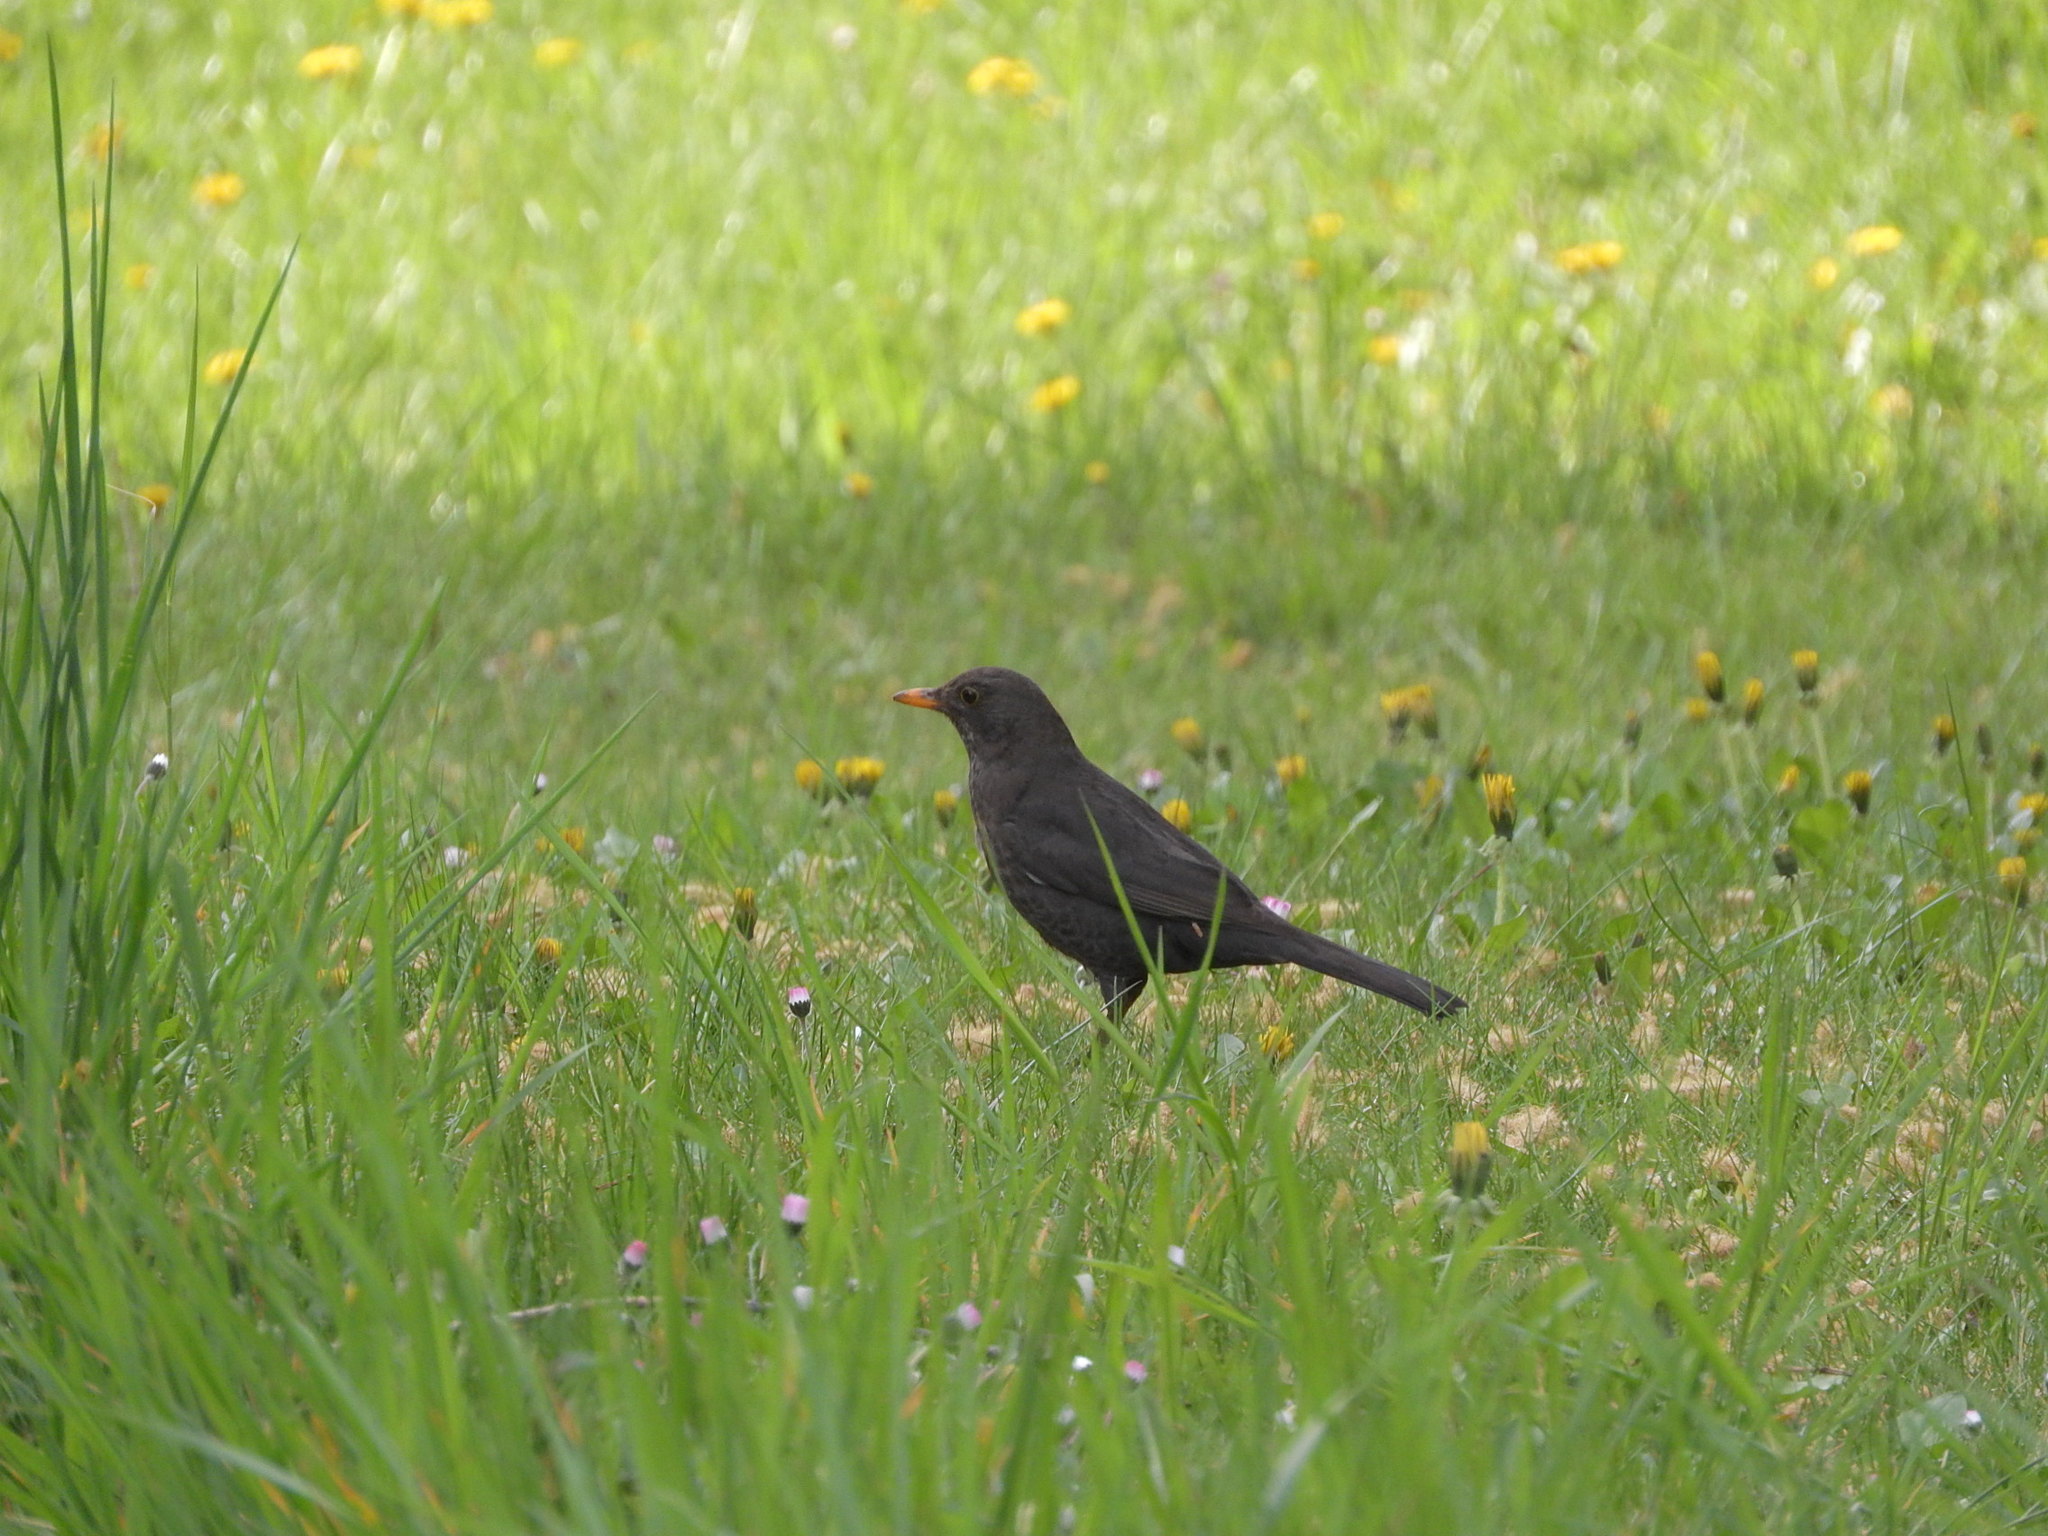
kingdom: Animalia
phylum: Chordata
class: Aves
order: Passeriformes
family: Turdidae
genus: Turdus
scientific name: Turdus merula
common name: Common blackbird
